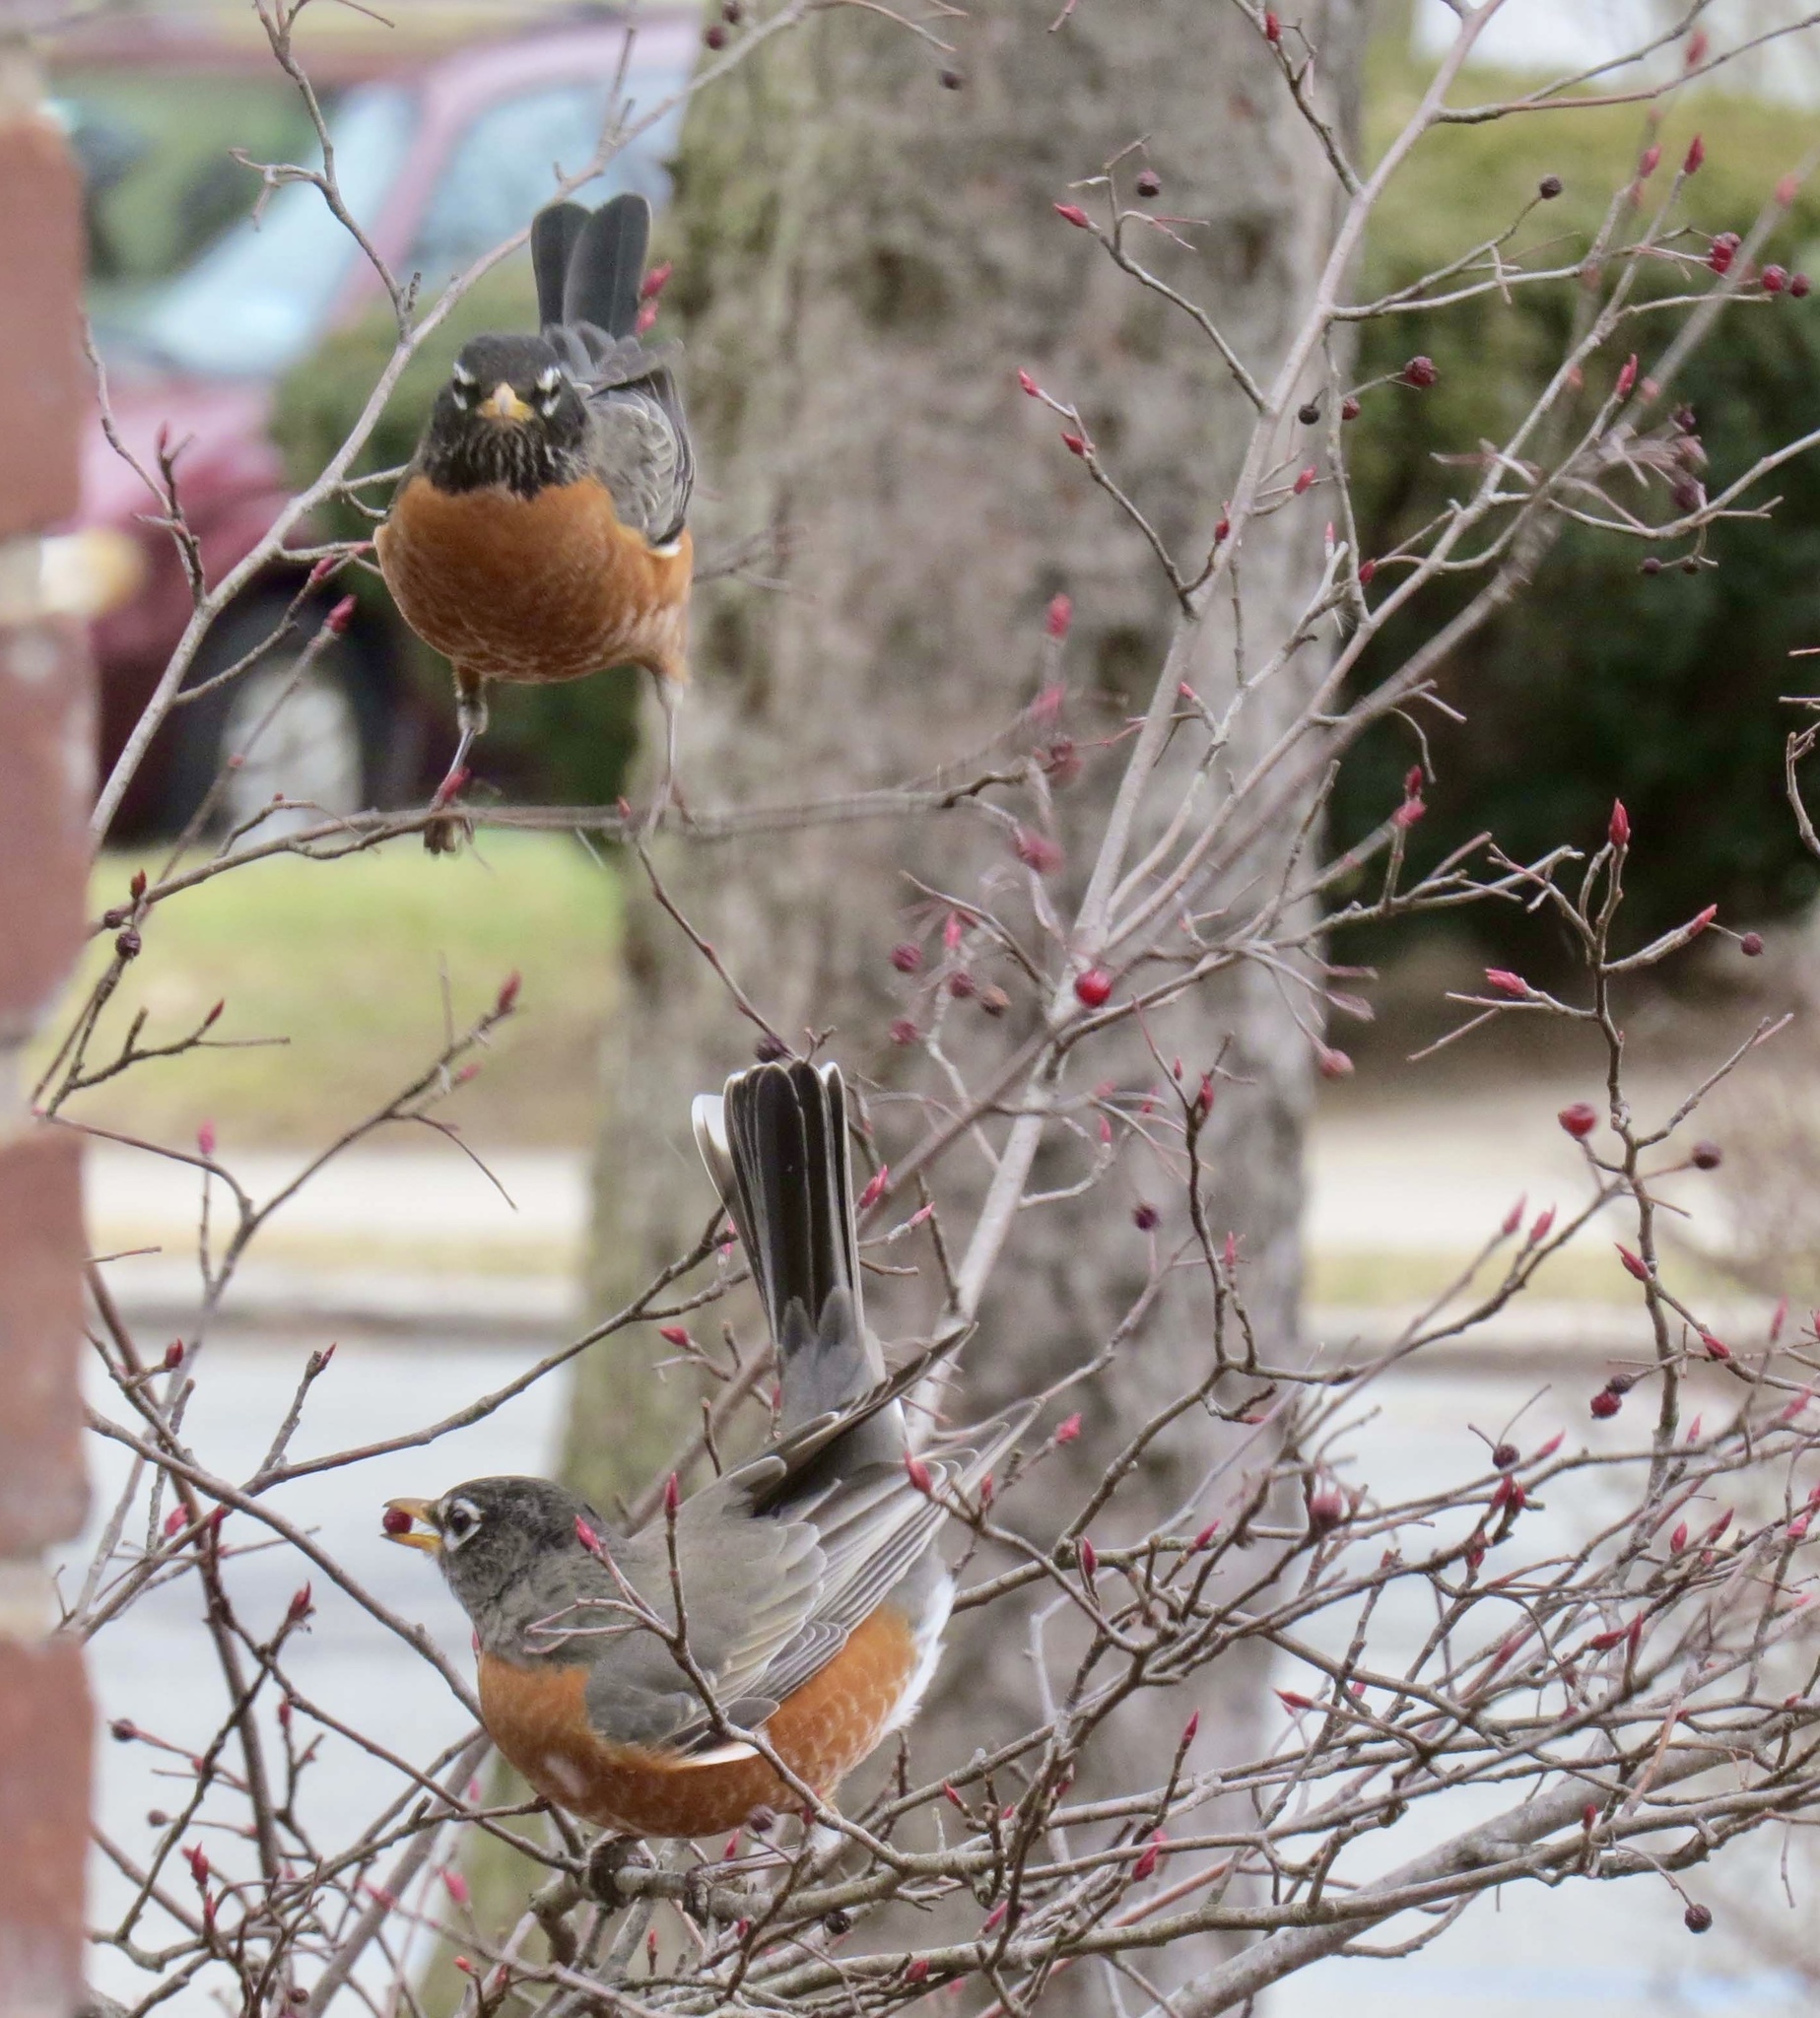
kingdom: Animalia
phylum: Chordata
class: Aves
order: Passeriformes
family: Turdidae
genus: Turdus
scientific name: Turdus migratorius
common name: American robin
